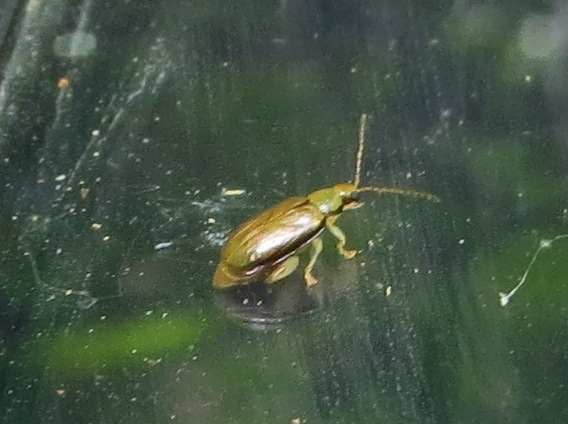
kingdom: Animalia
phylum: Arthropoda
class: Insecta
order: Coleoptera
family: Chrysomelidae
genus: Systena
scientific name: Systena marginalis
